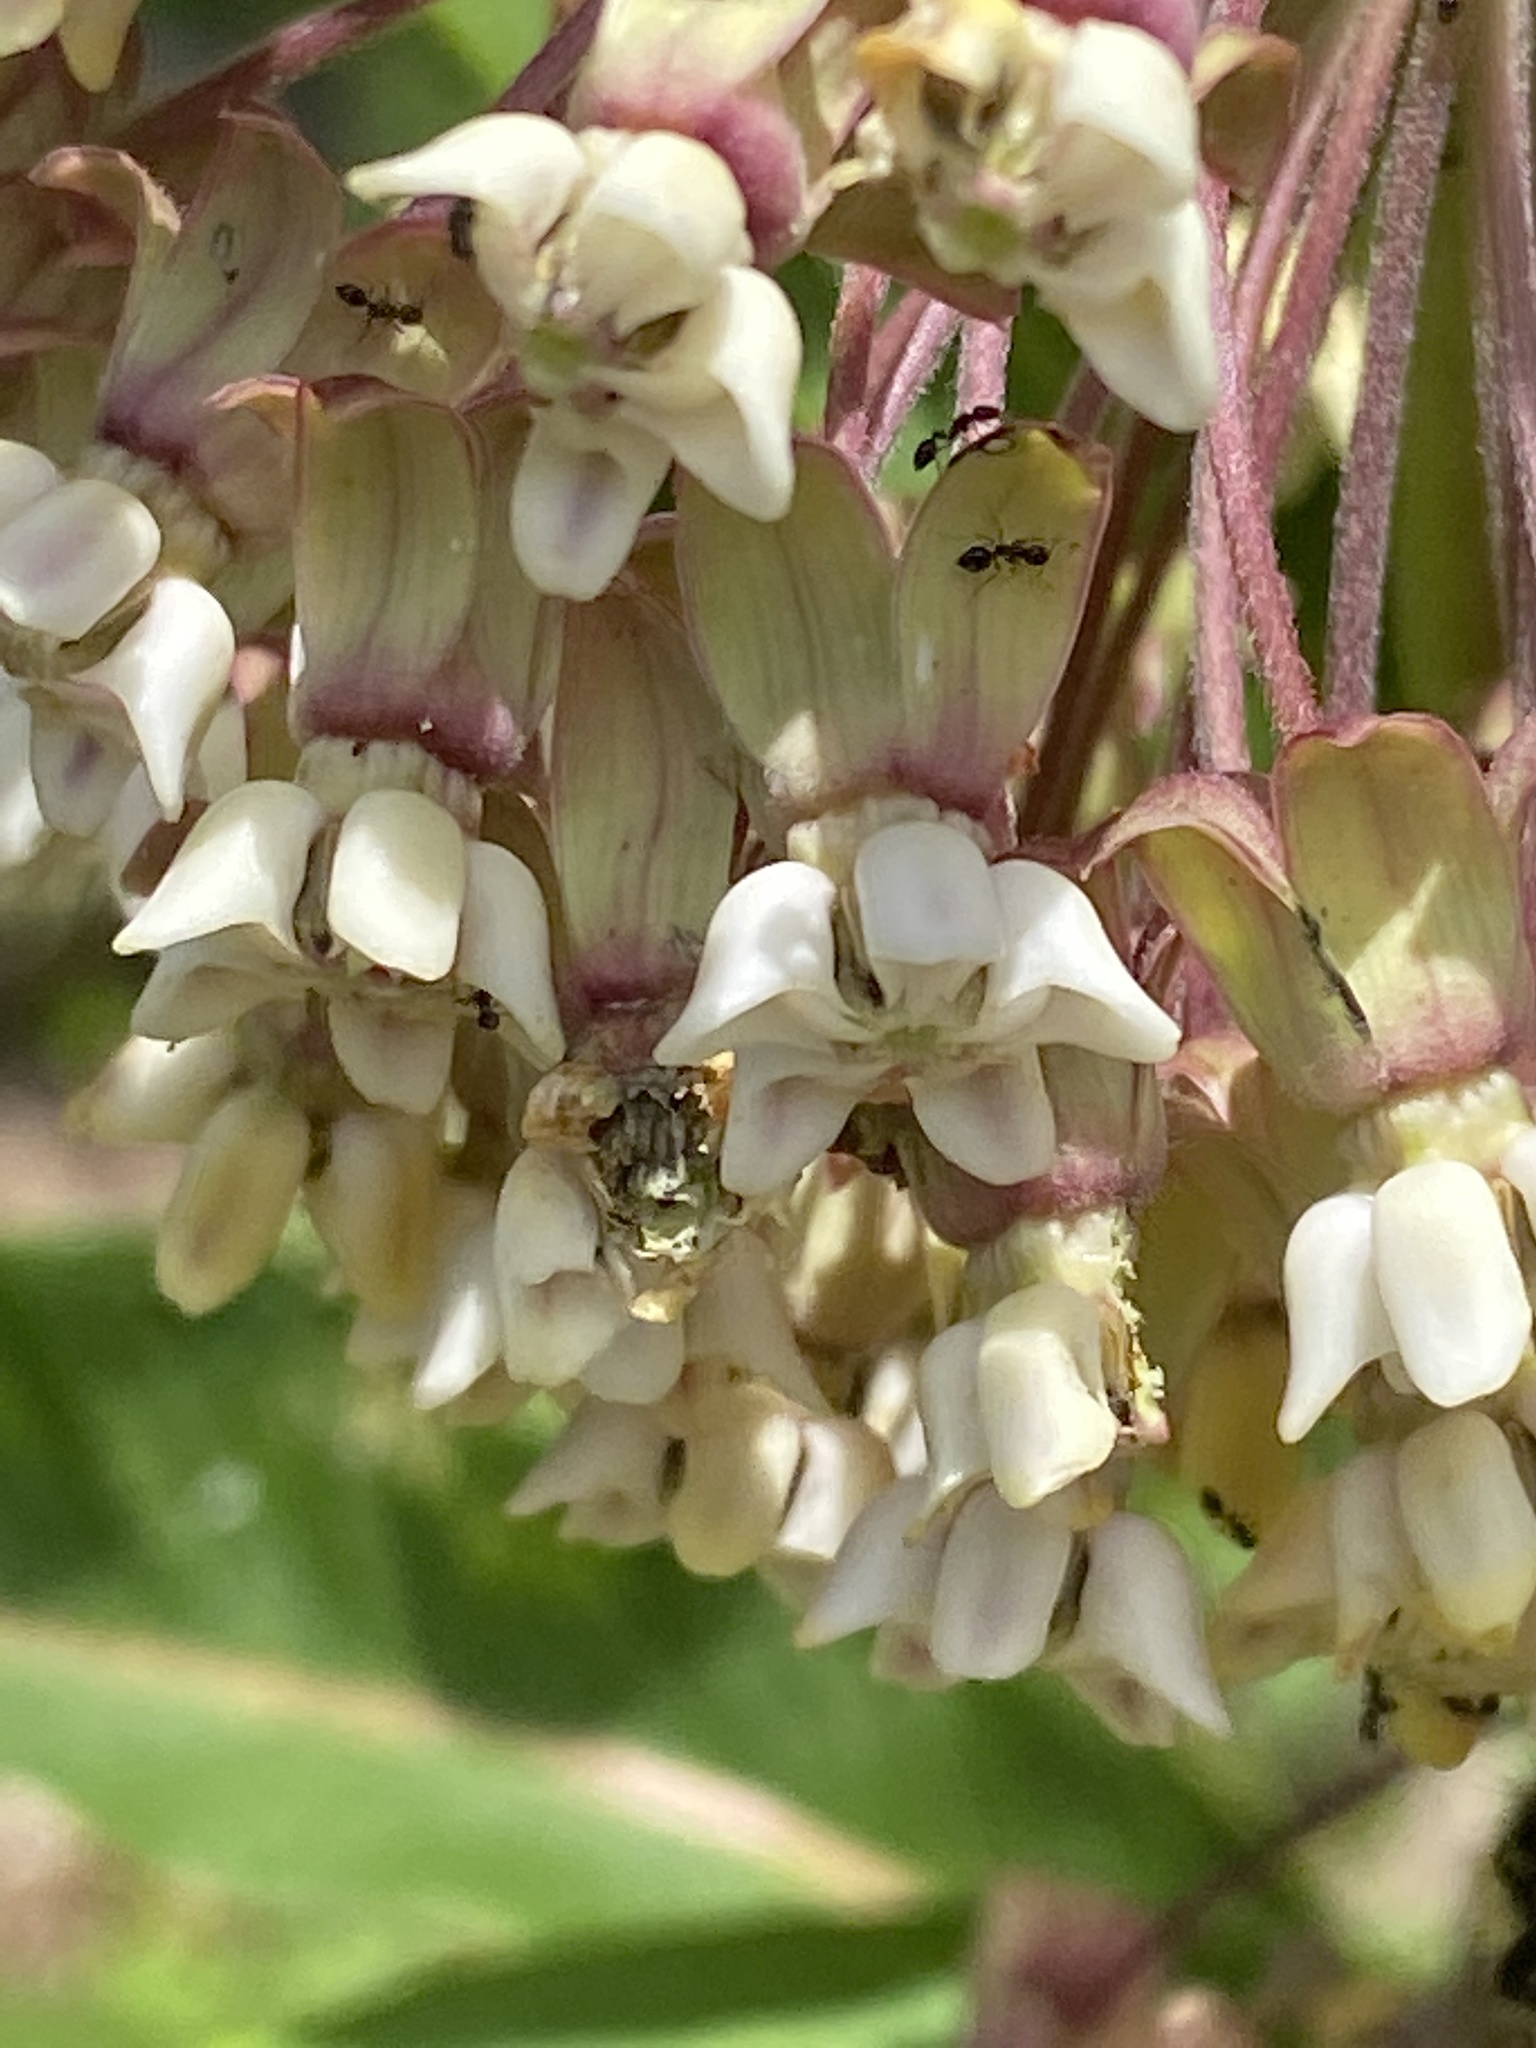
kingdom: Plantae
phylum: Tracheophyta
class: Magnoliopsida
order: Gentianales
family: Apocynaceae
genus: Asclepias
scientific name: Asclepias syriaca
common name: Common milkweed
